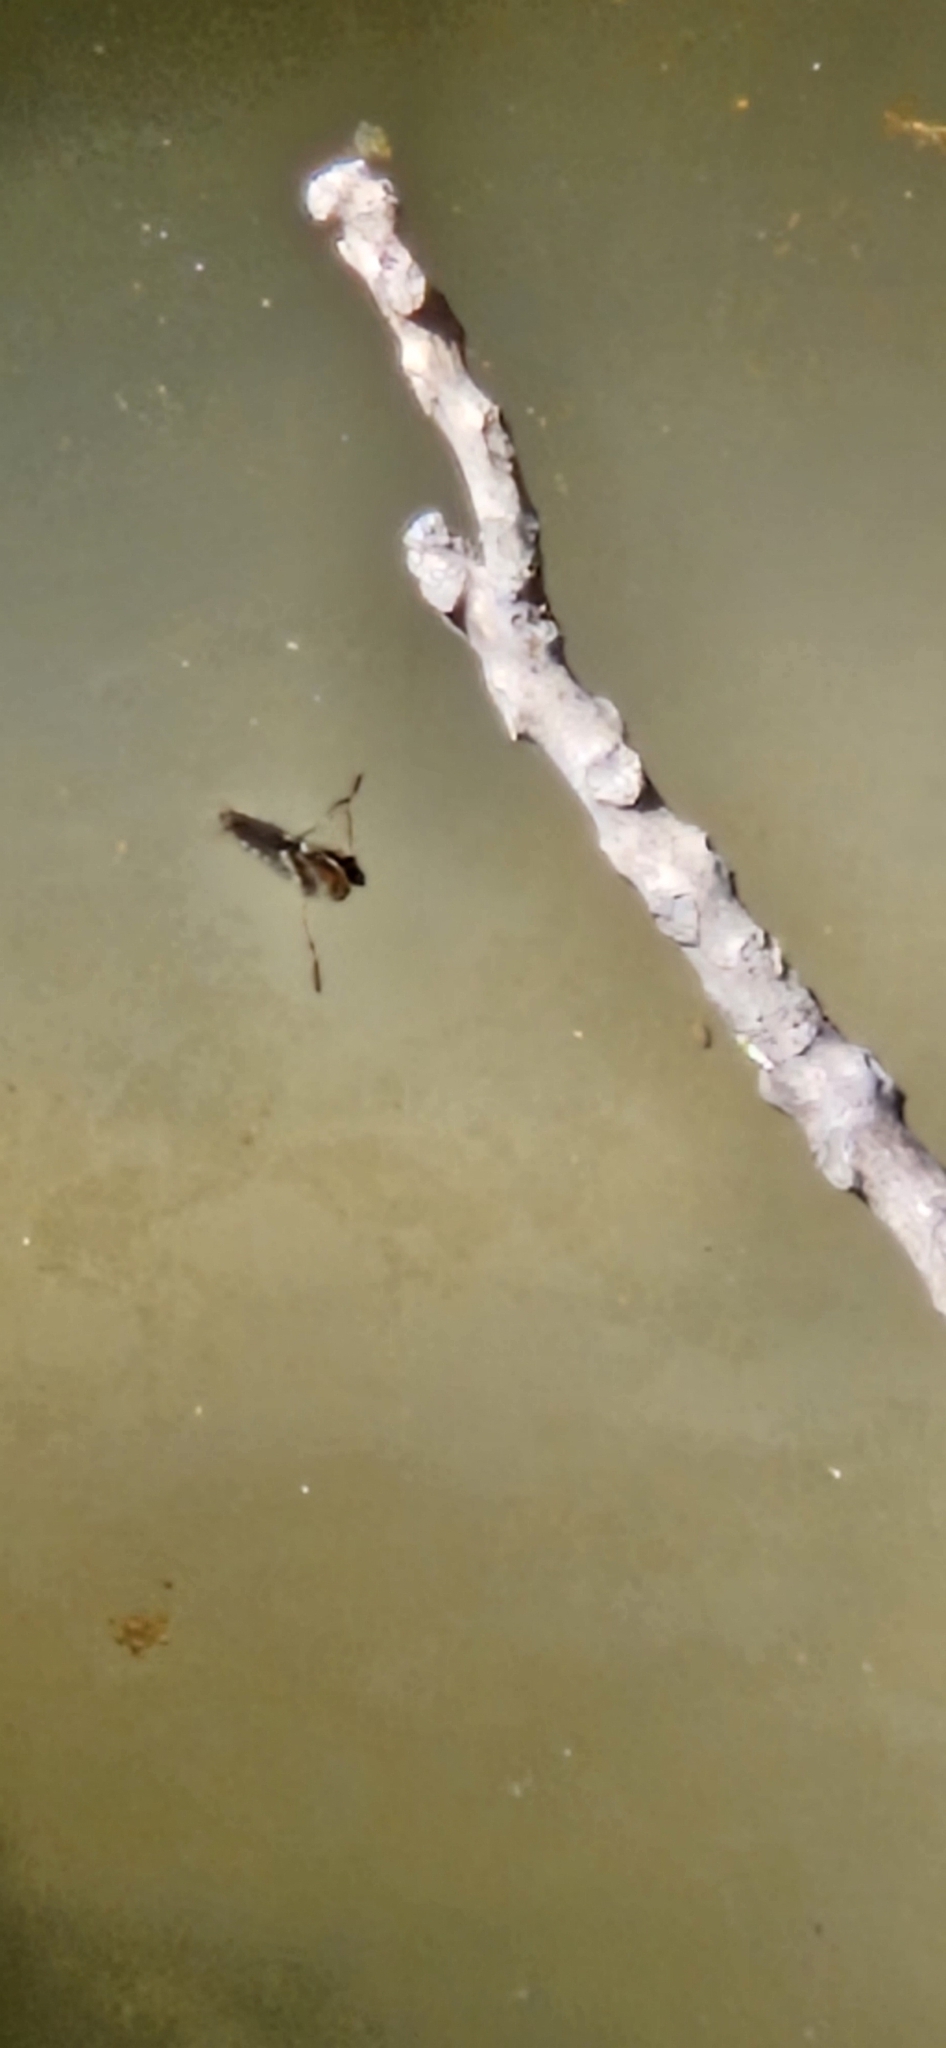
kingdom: Animalia
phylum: Arthropoda
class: Insecta
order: Hemiptera
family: Notonectidae
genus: Notonecta
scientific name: Notonecta
